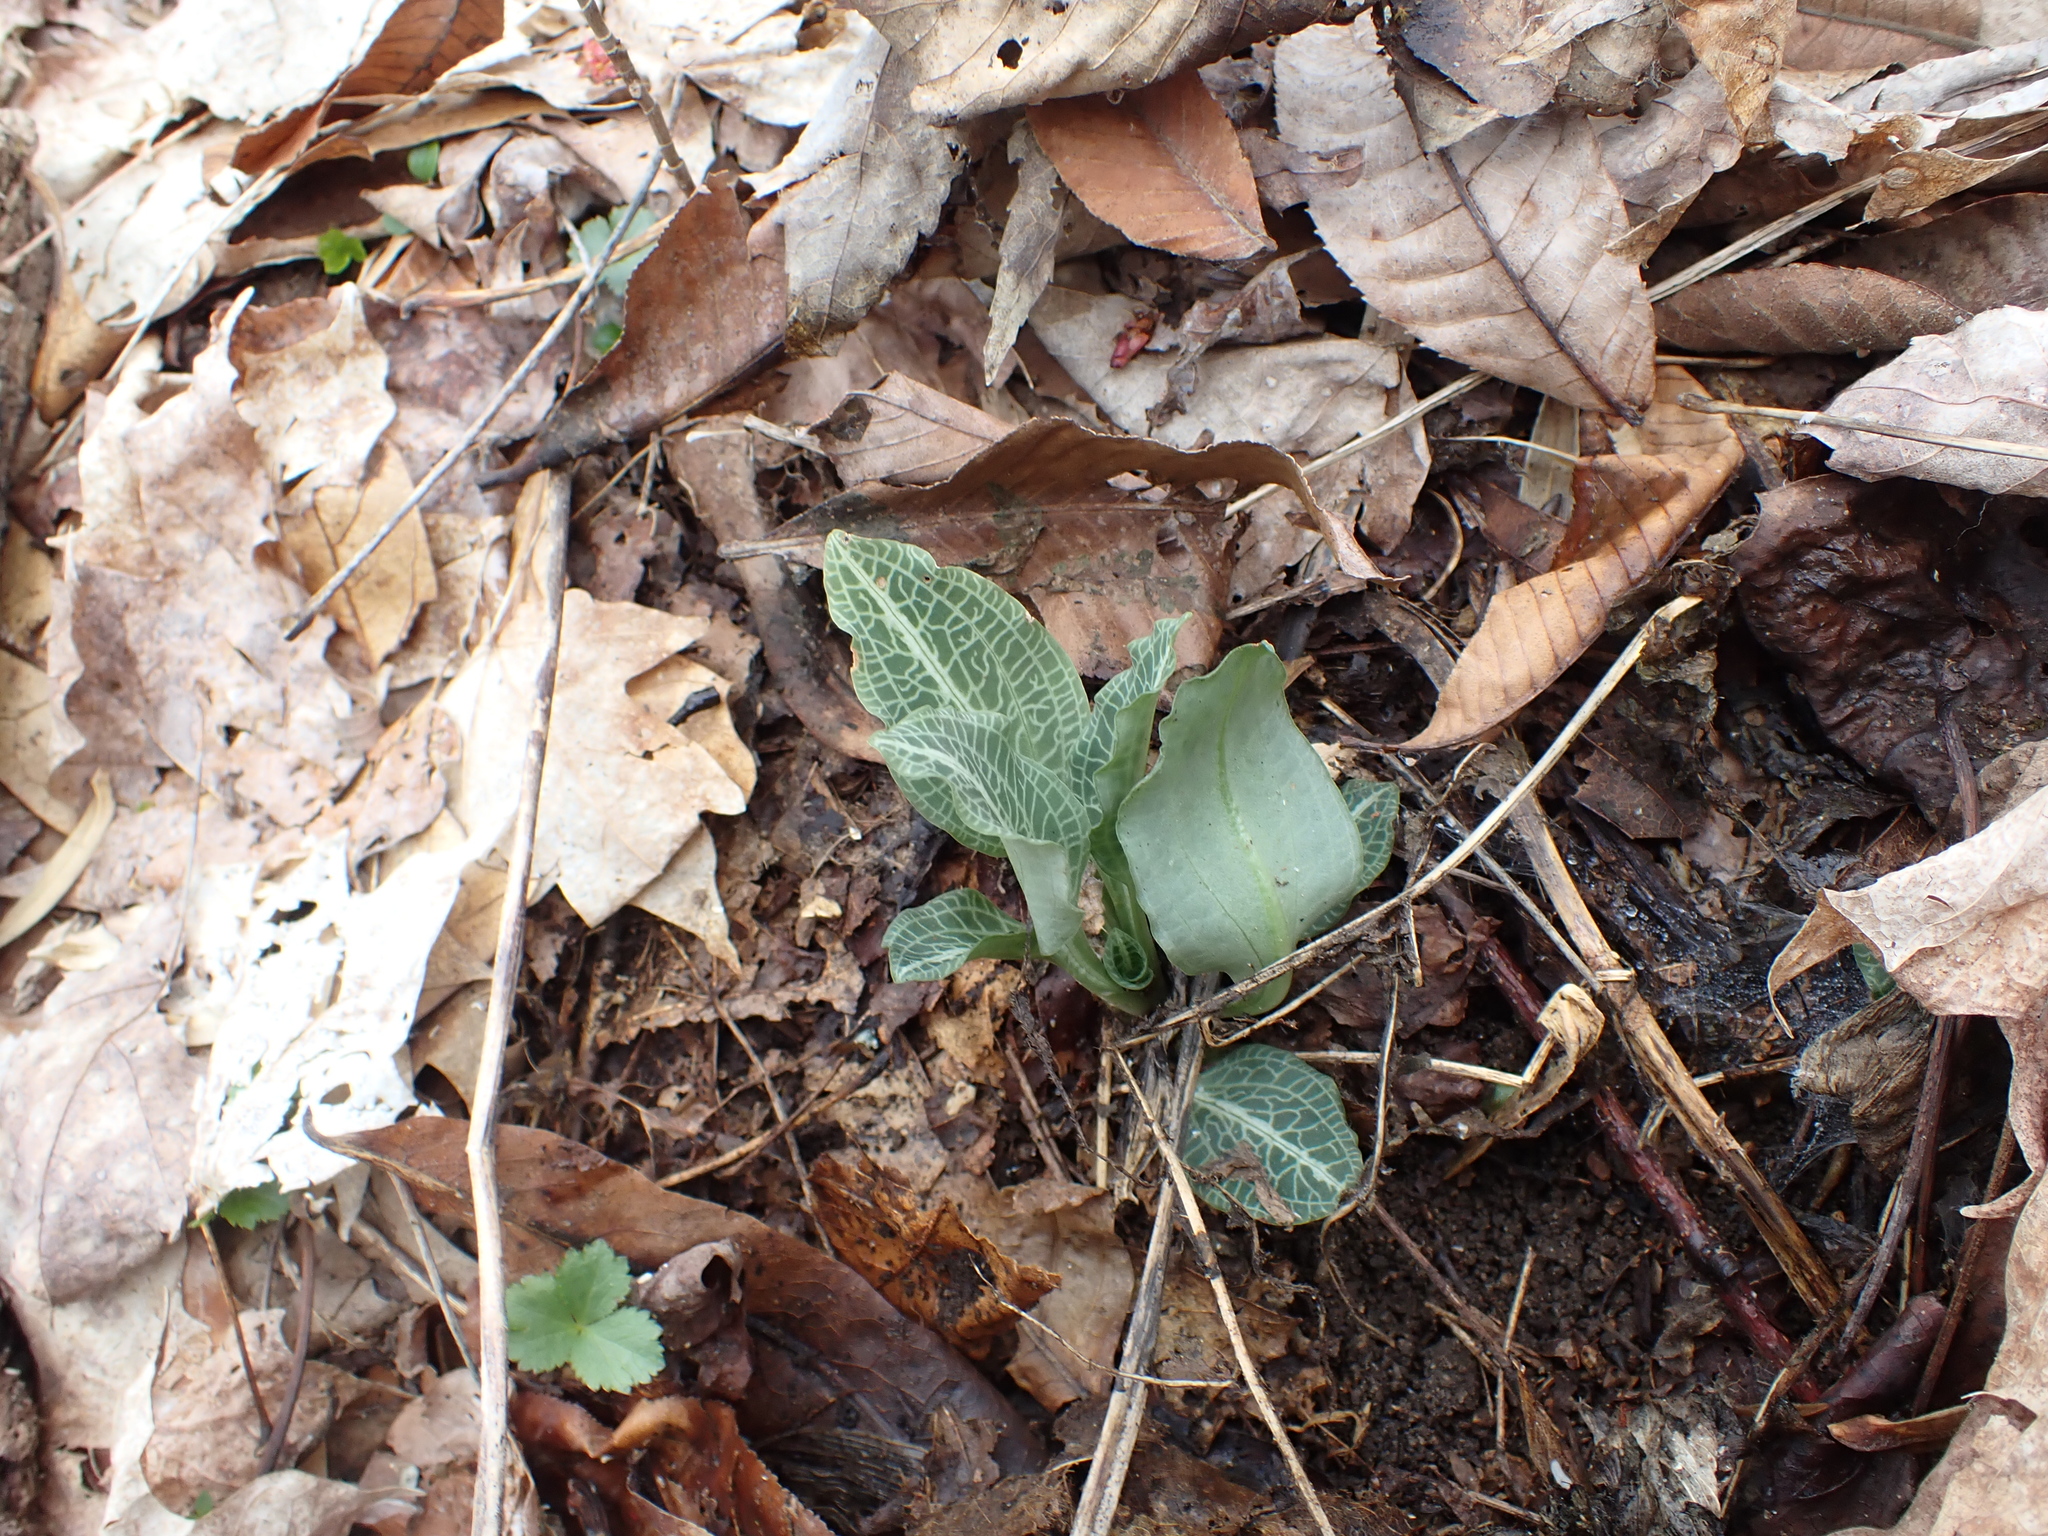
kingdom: Plantae
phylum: Tracheophyta
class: Liliopsida
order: Asparagales
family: Orchidaceae
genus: Goodyera
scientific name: Goodyera pubescens
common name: Downy rattlesnake-plantain
